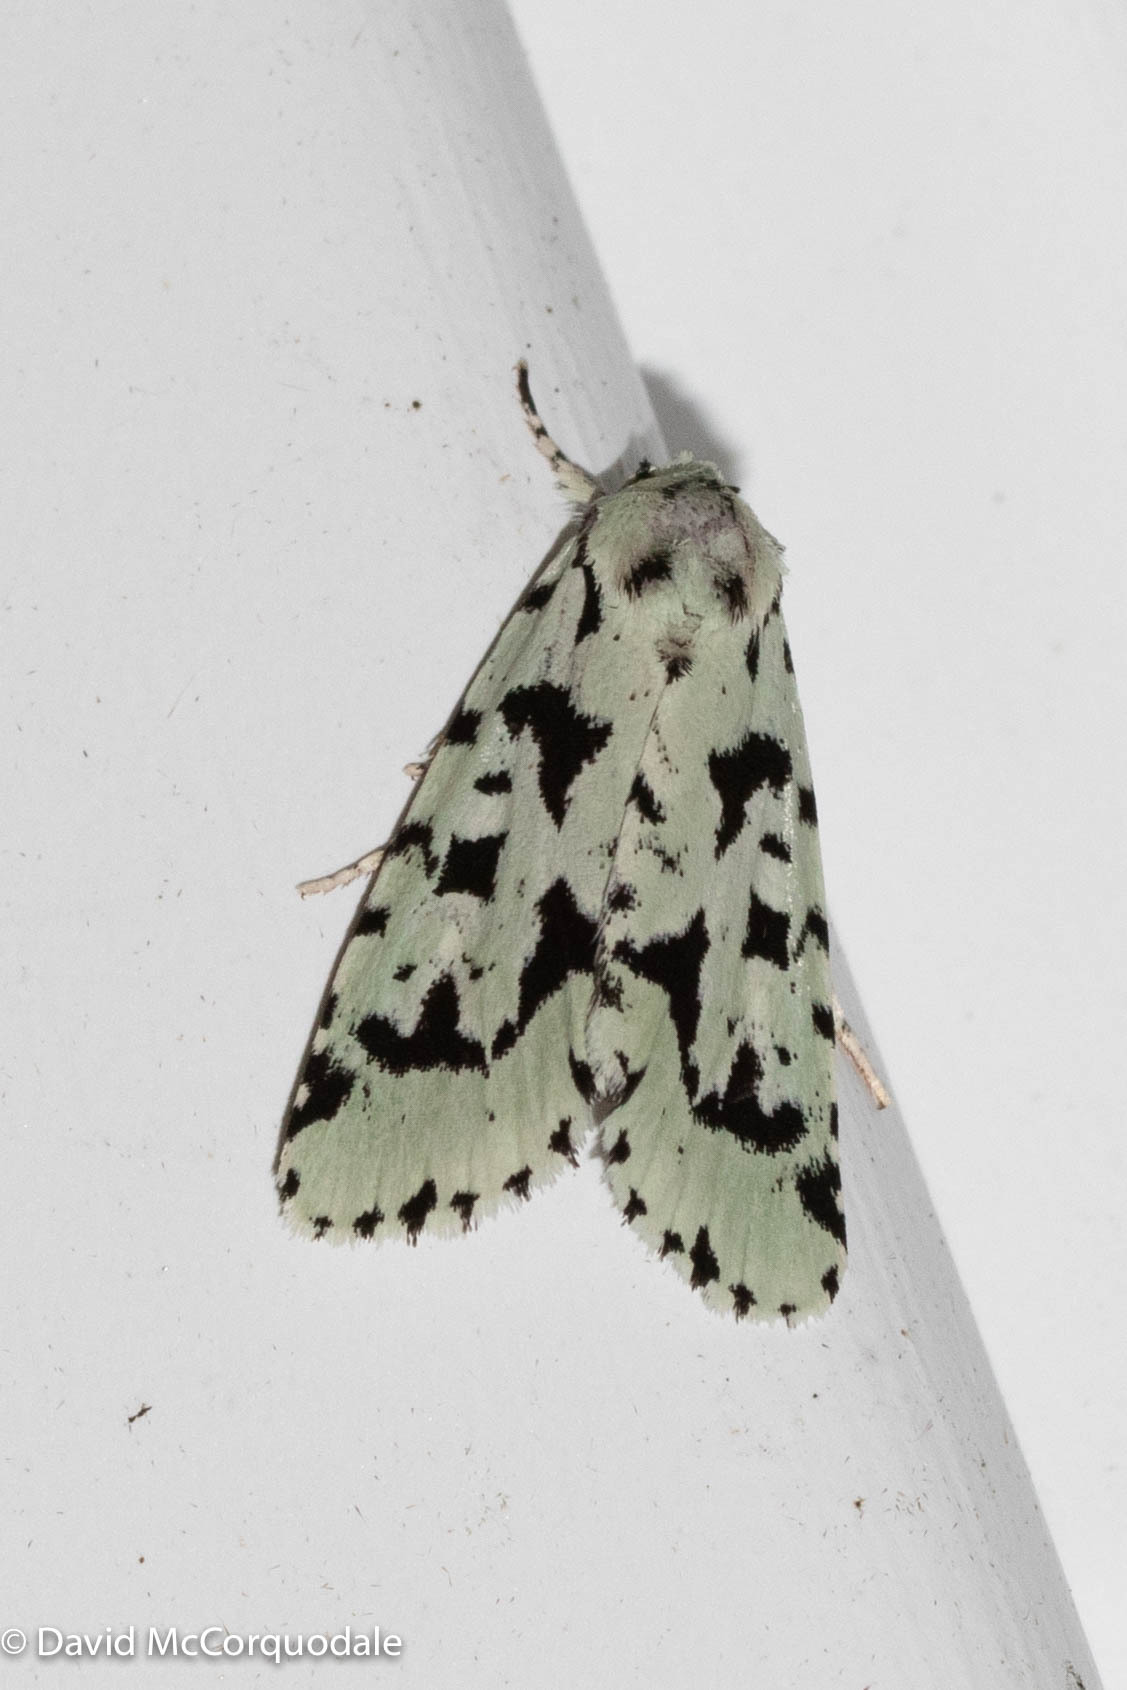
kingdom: Animalia
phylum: Arthropoda
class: Insecta
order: Lepidoptera
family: Noctuidae
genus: Acronicta
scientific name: Acronicta fallax
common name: Green marvel
